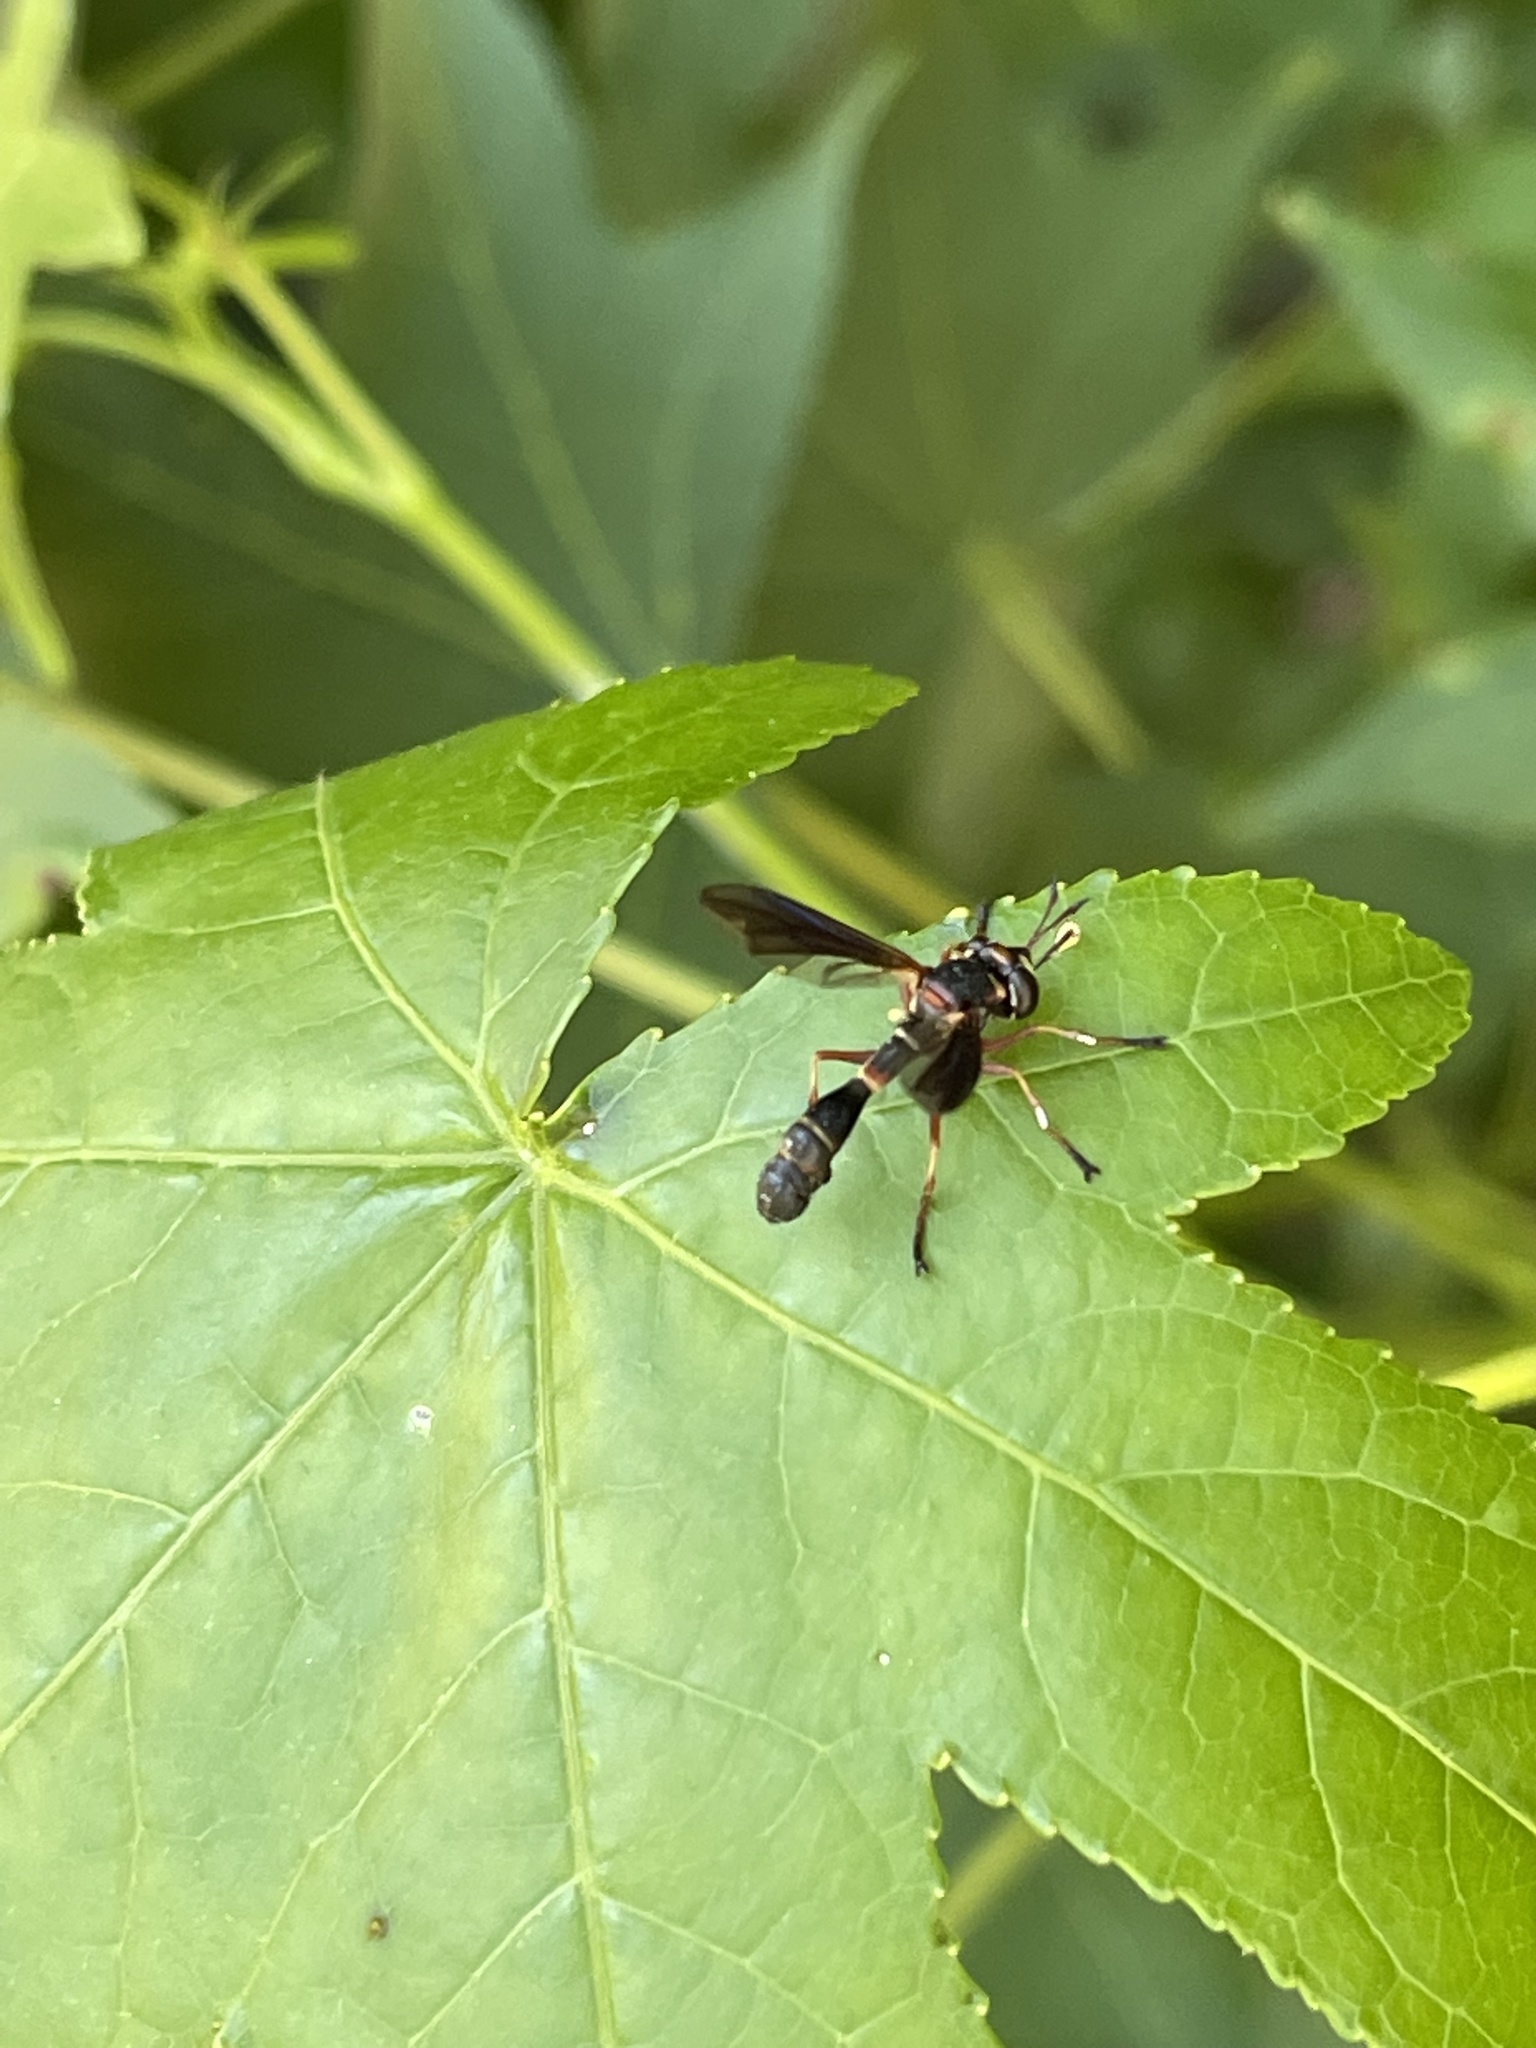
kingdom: Animalia
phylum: Arthropoda
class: Insecta
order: Diptera
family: Conopidae
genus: Physocephala
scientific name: Physocephala sagittaria
